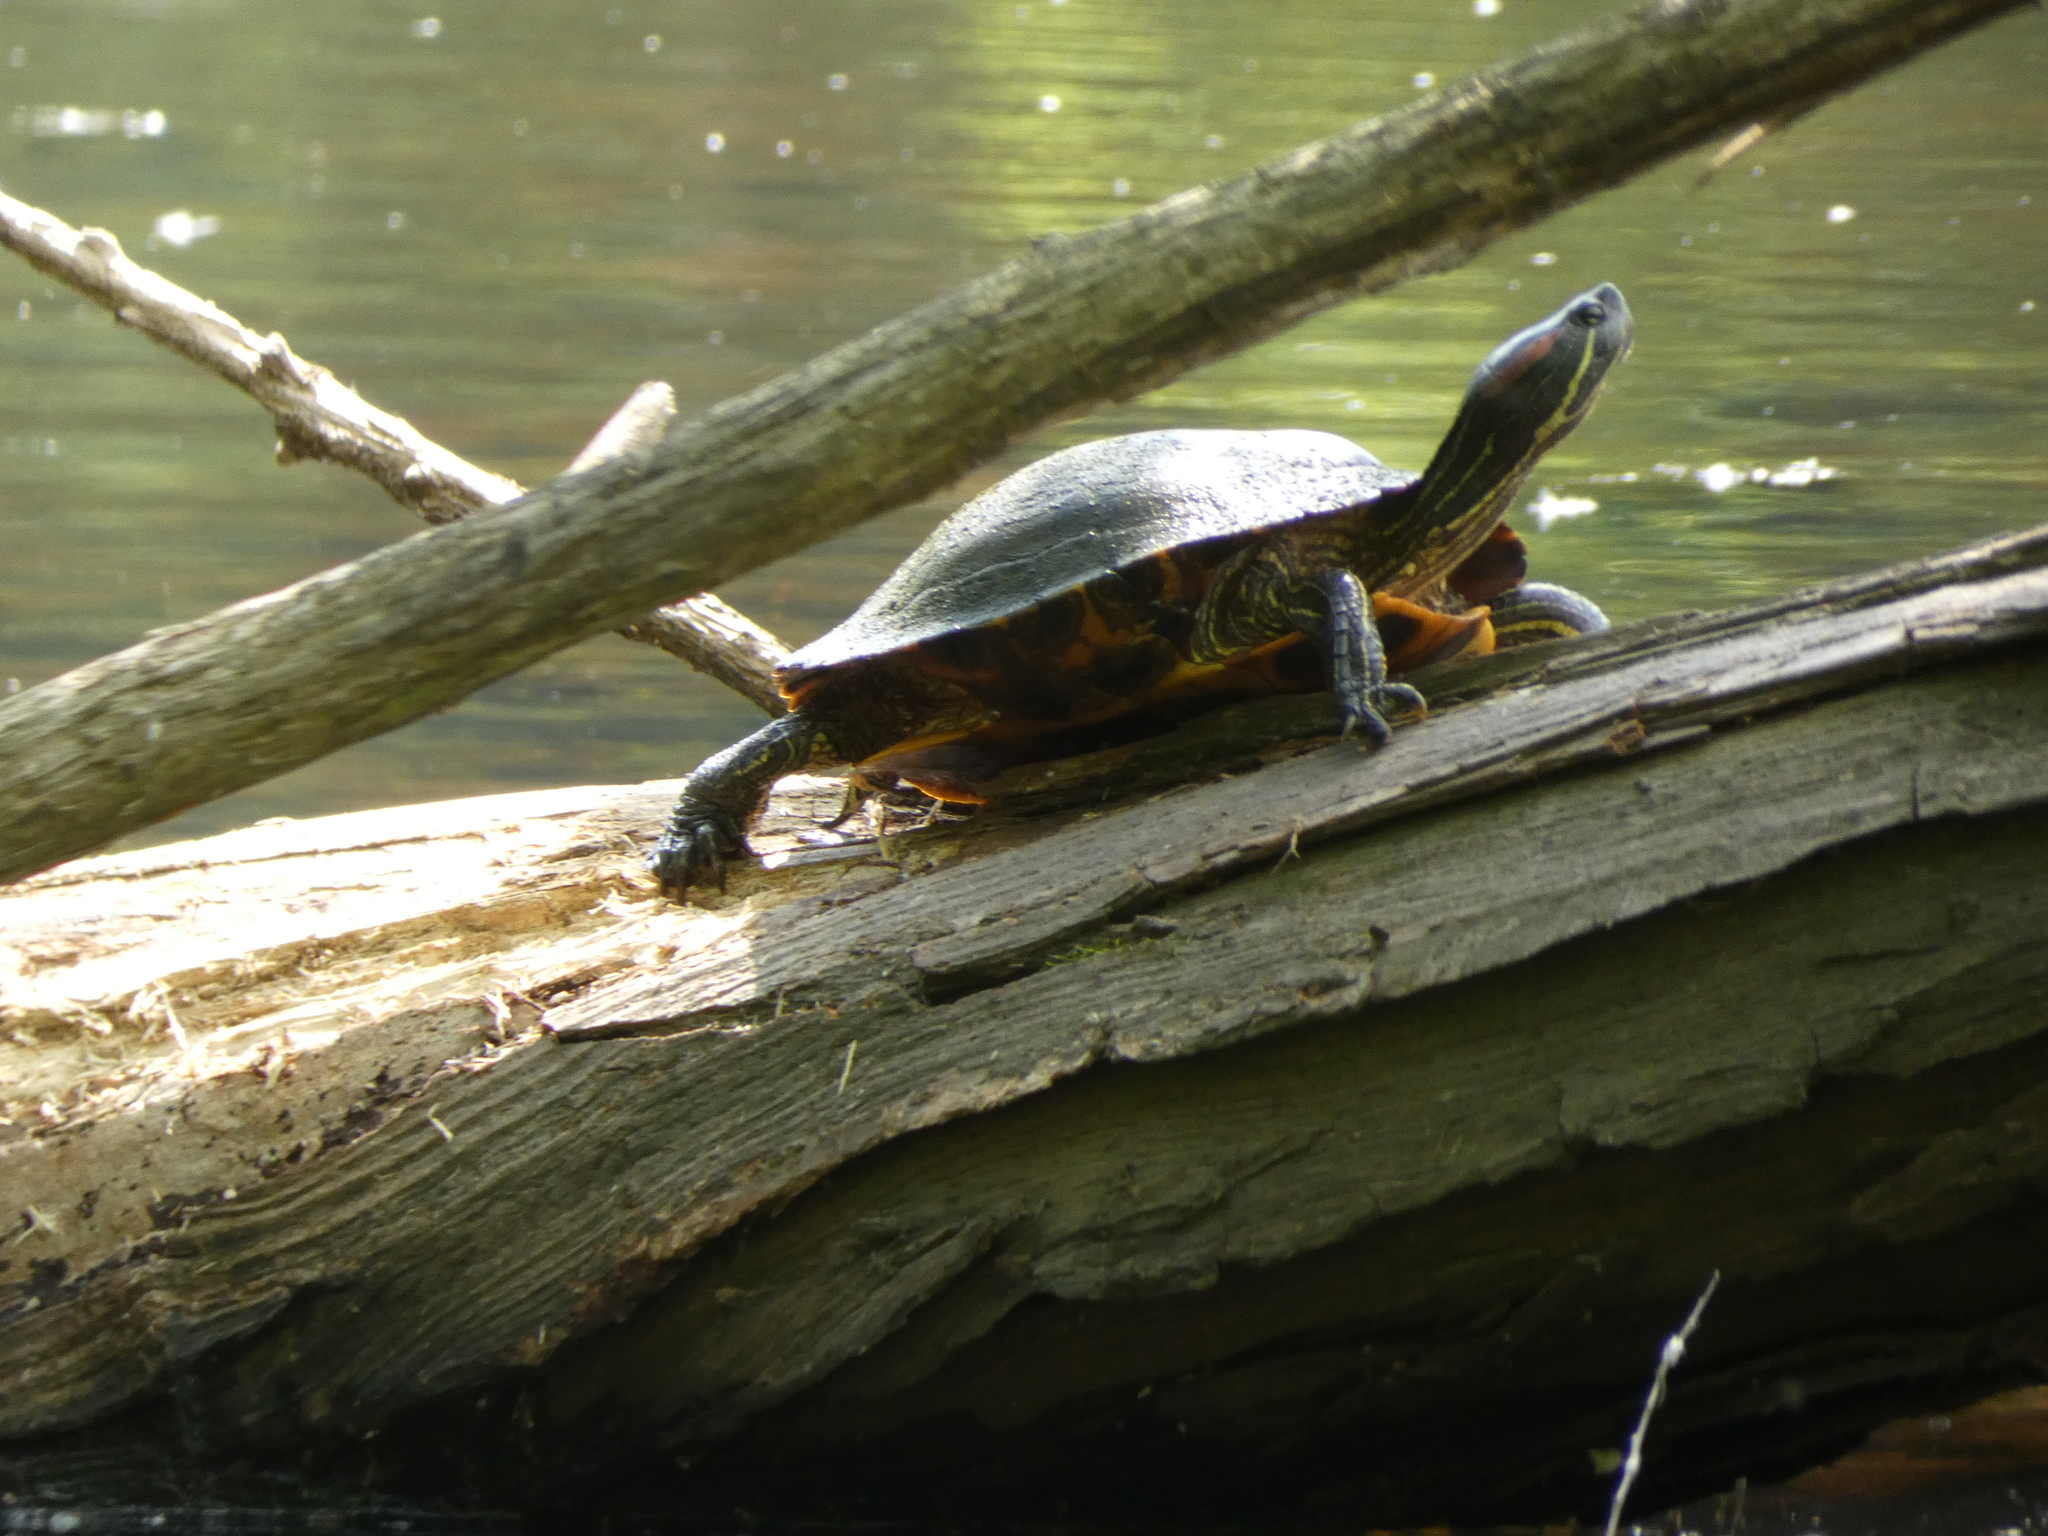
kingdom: Animalia
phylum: Chordata
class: Testudines
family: Emydidae
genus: Trachemys
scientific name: Trachemys scripta
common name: Slider
